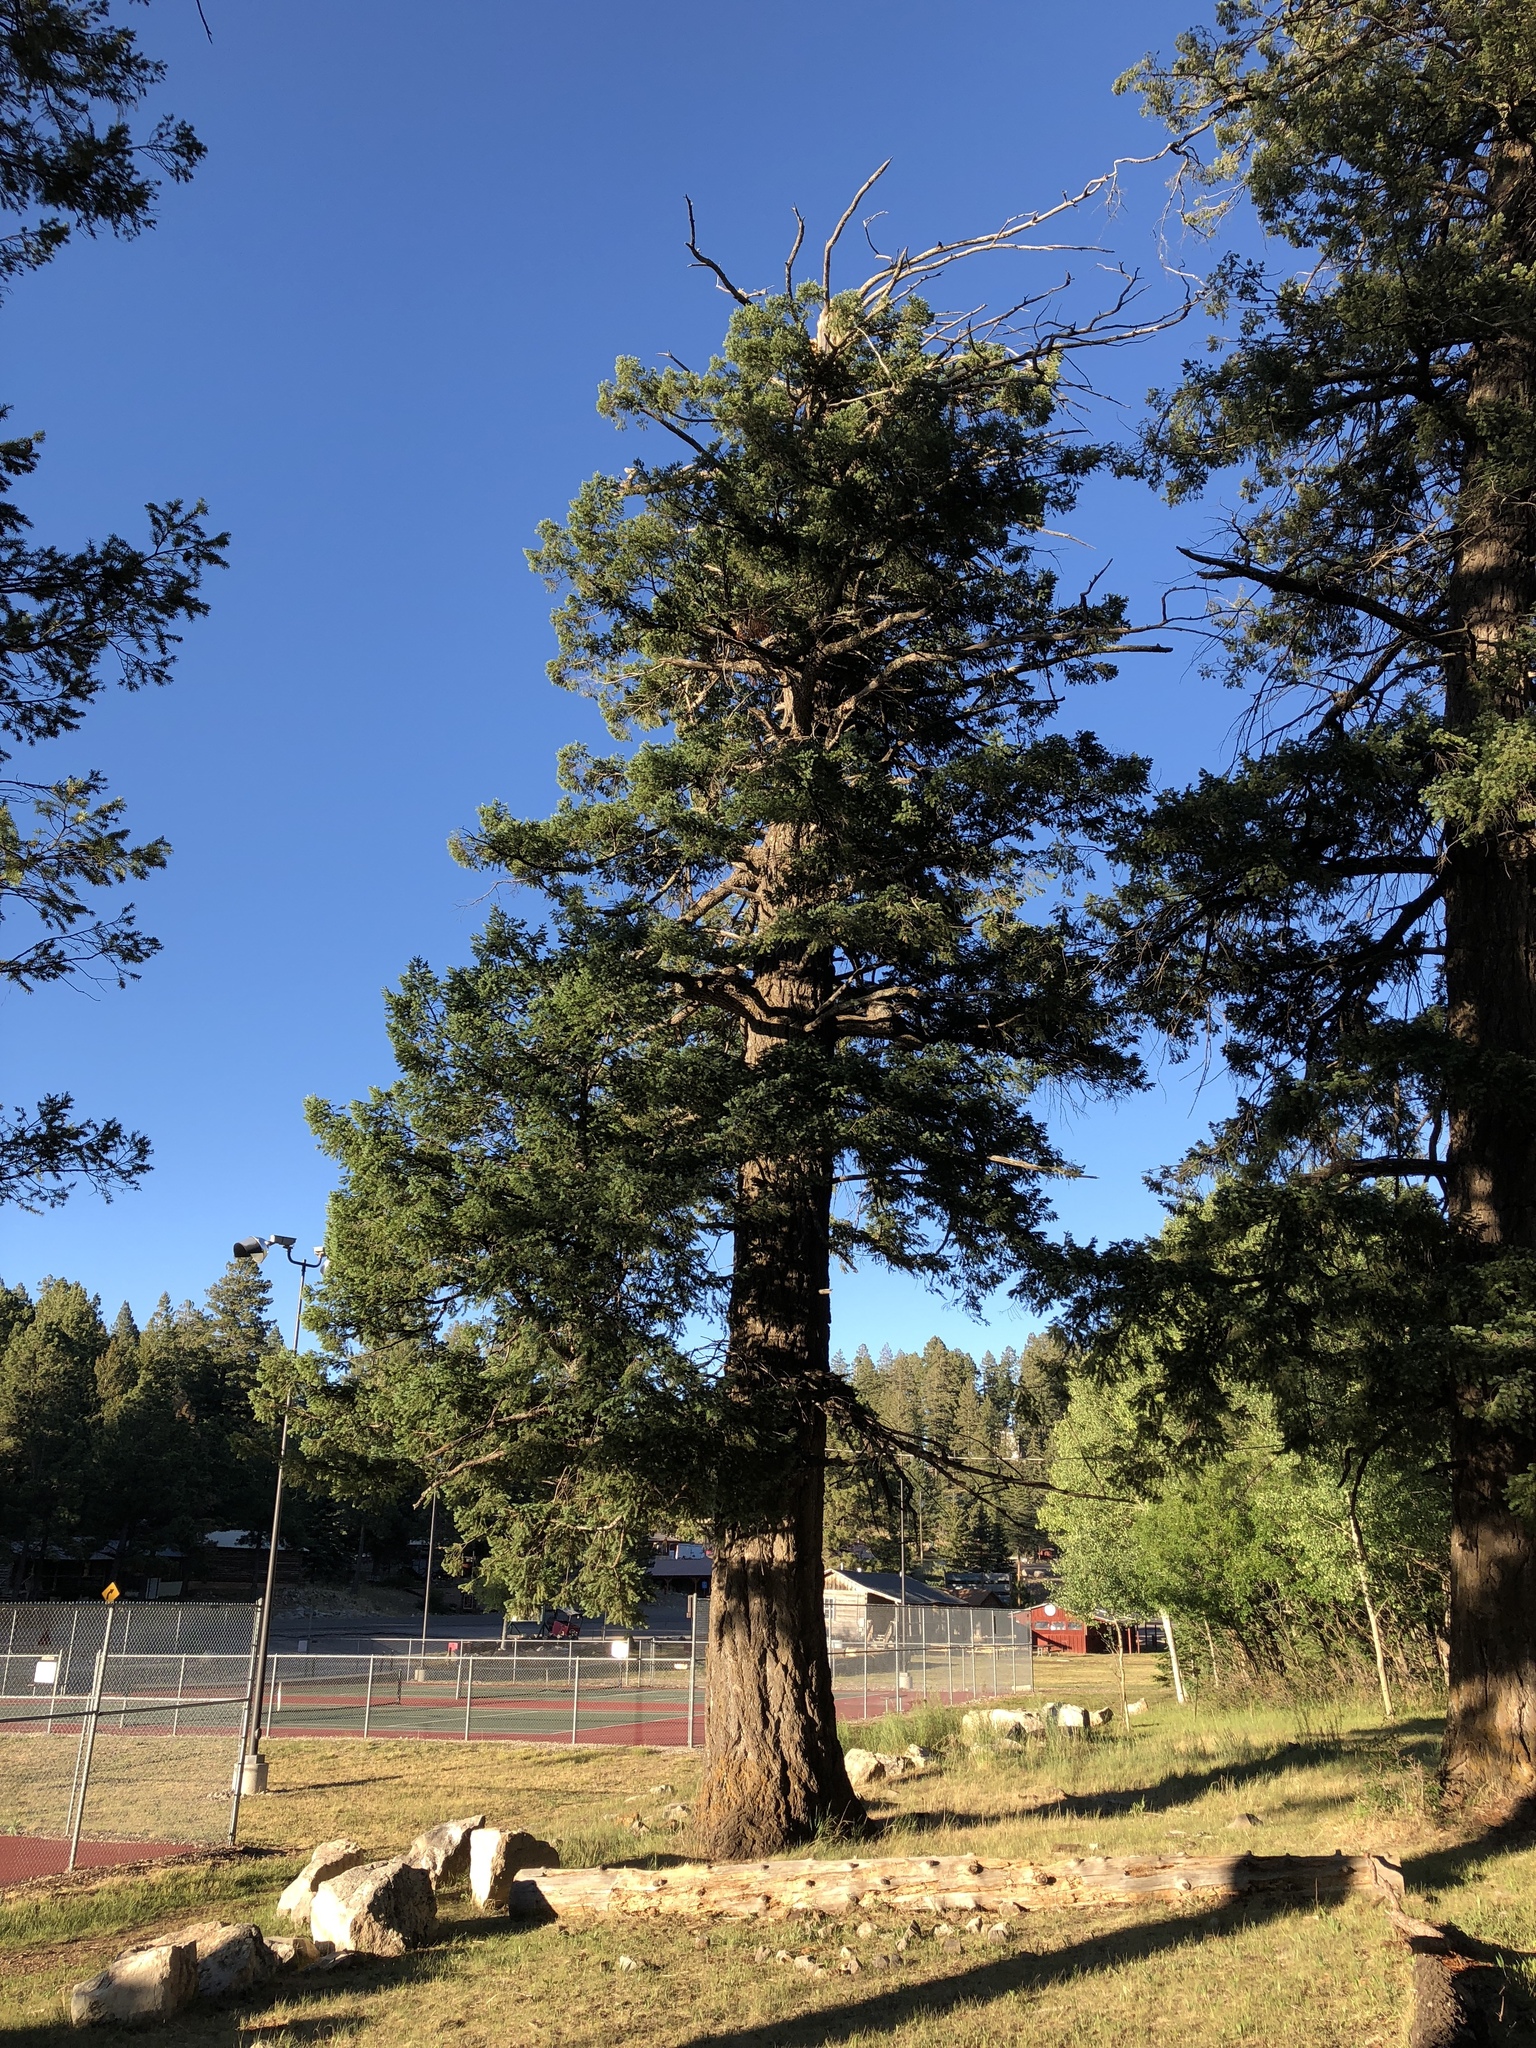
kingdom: Plantae
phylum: Tracheophyta
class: Pinopsida
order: Pinales
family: Pinaceae
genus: Pseudotsuga
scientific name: Pseudotsuga menziesii
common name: Douglas fir
